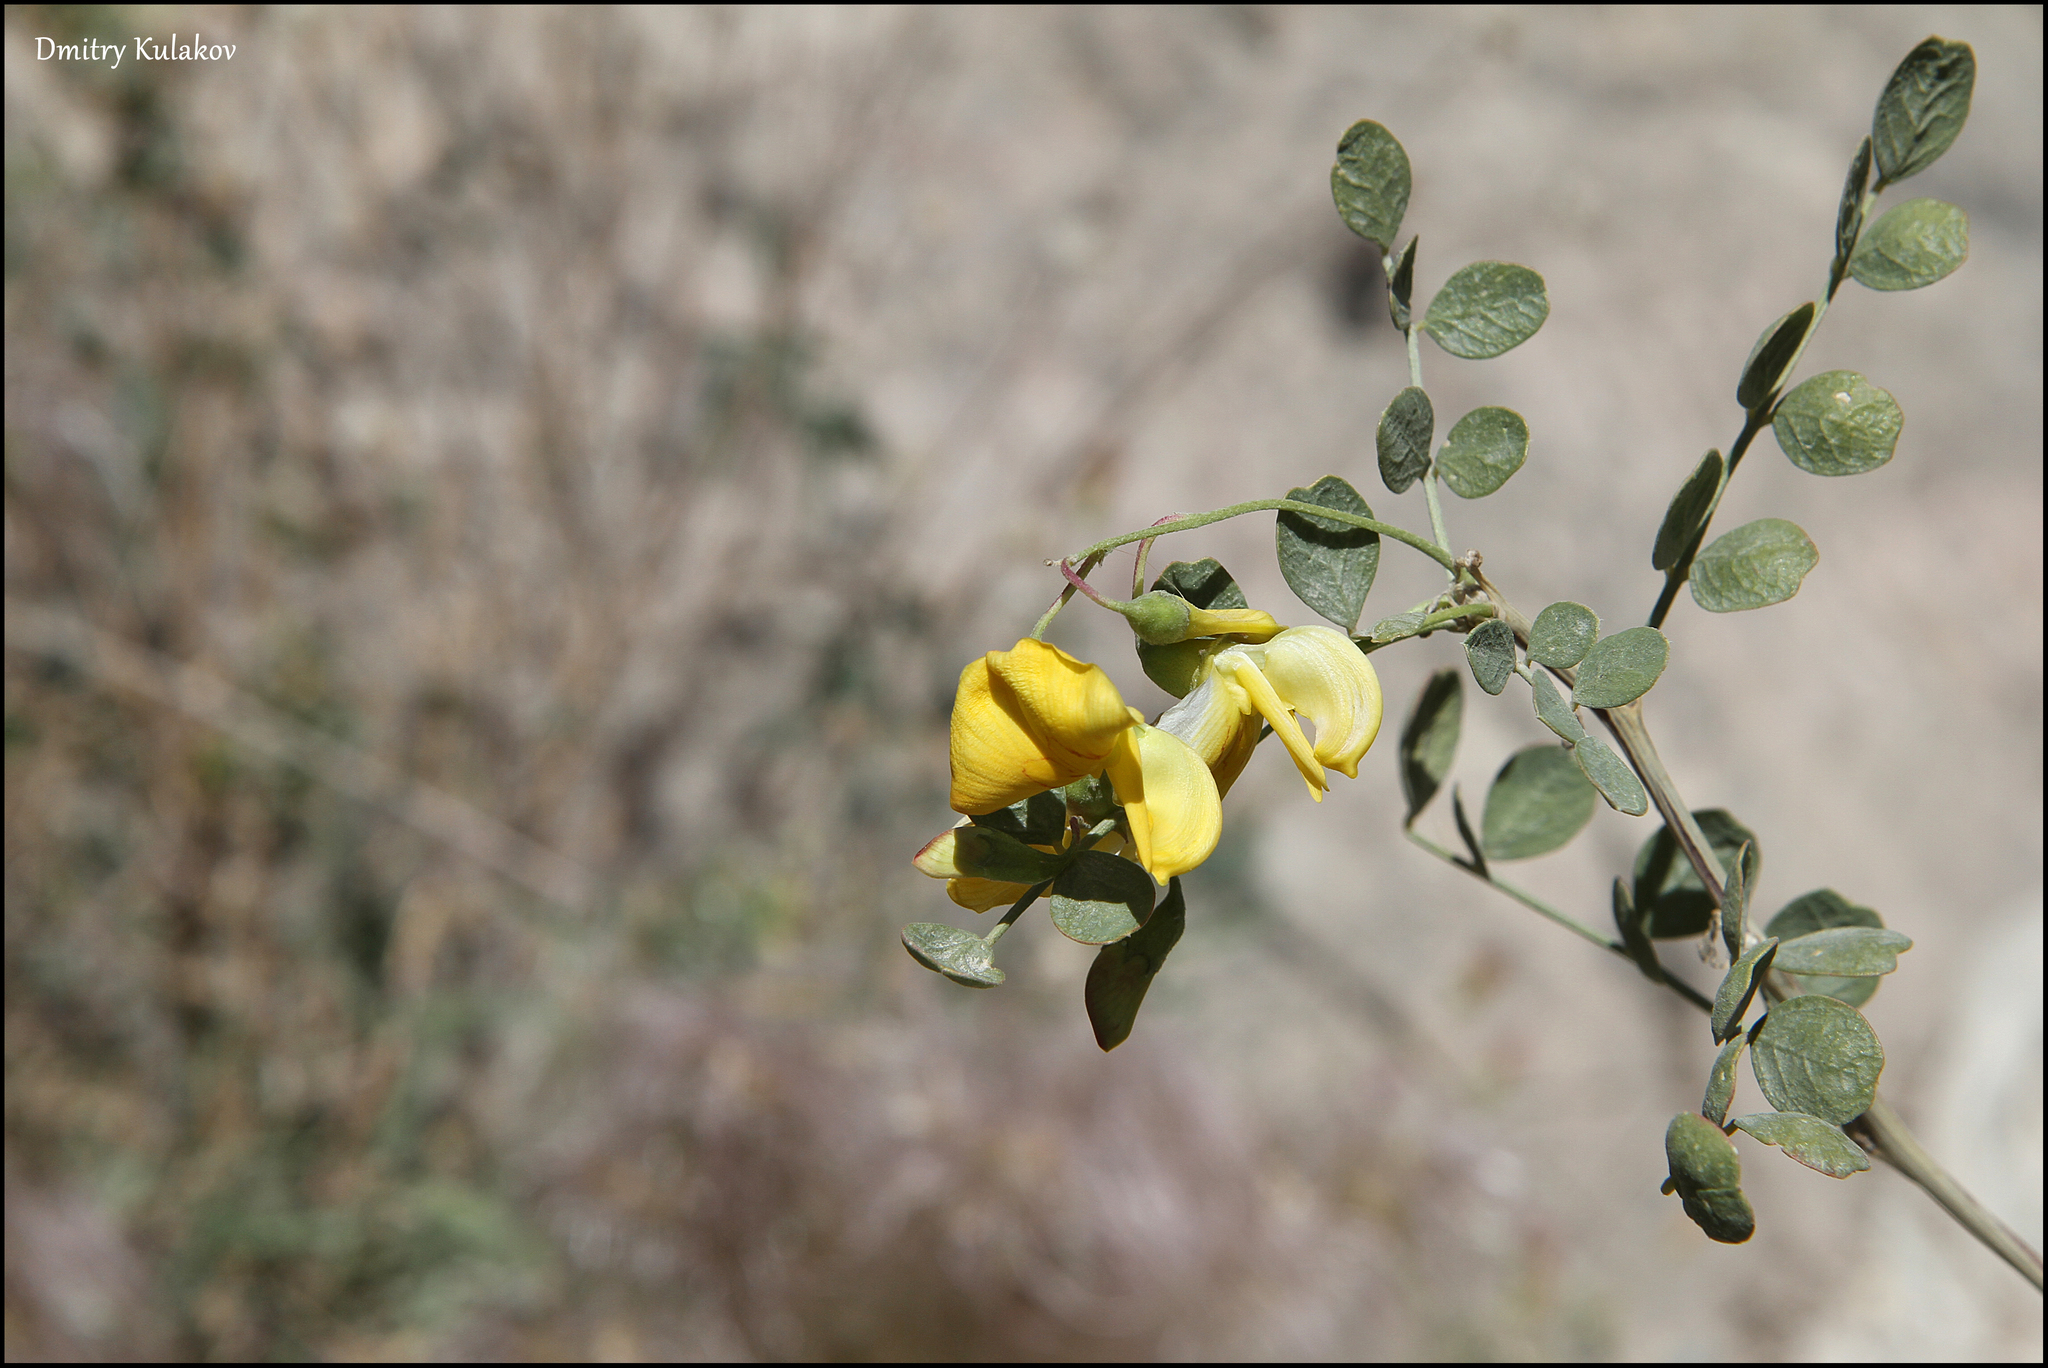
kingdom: Plantae
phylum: Tracheophyta
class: Magnoliopsida
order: Fabales
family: Fabaceae
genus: Colutea
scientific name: Colutea paulsenii
